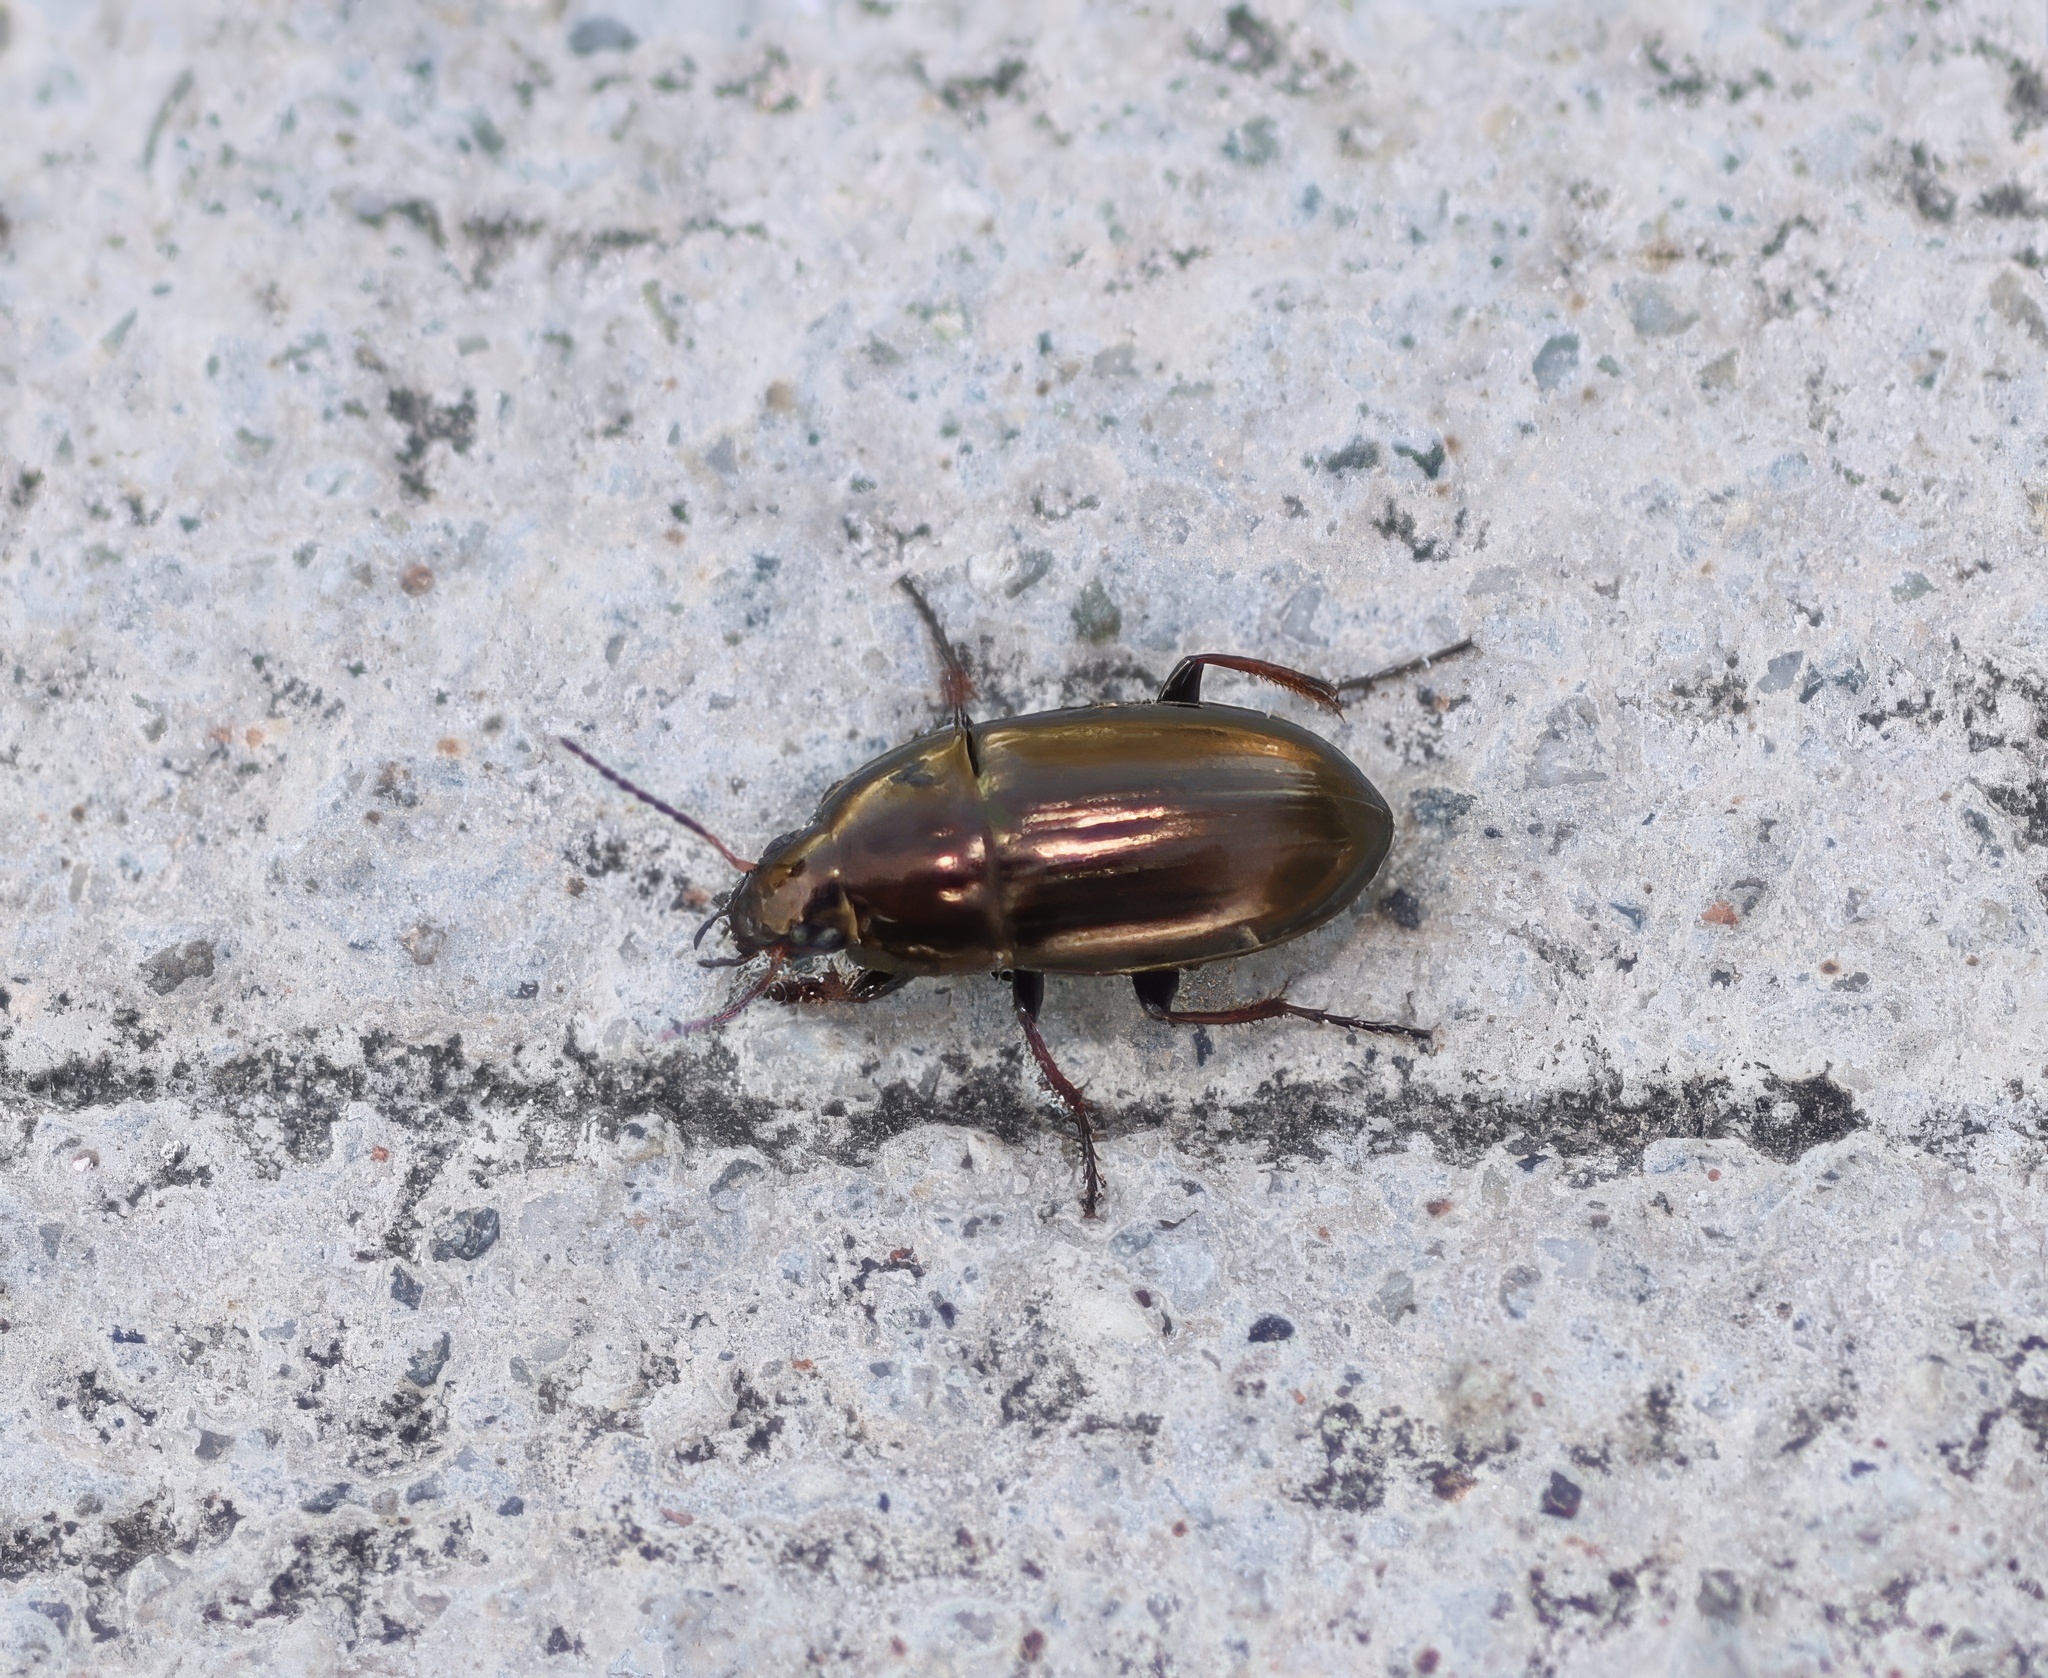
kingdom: Animalia
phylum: Arthropoda
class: Insecta
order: Coleoptera
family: Carabidae
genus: Amara
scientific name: Amara aenea
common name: Common sun beetle
